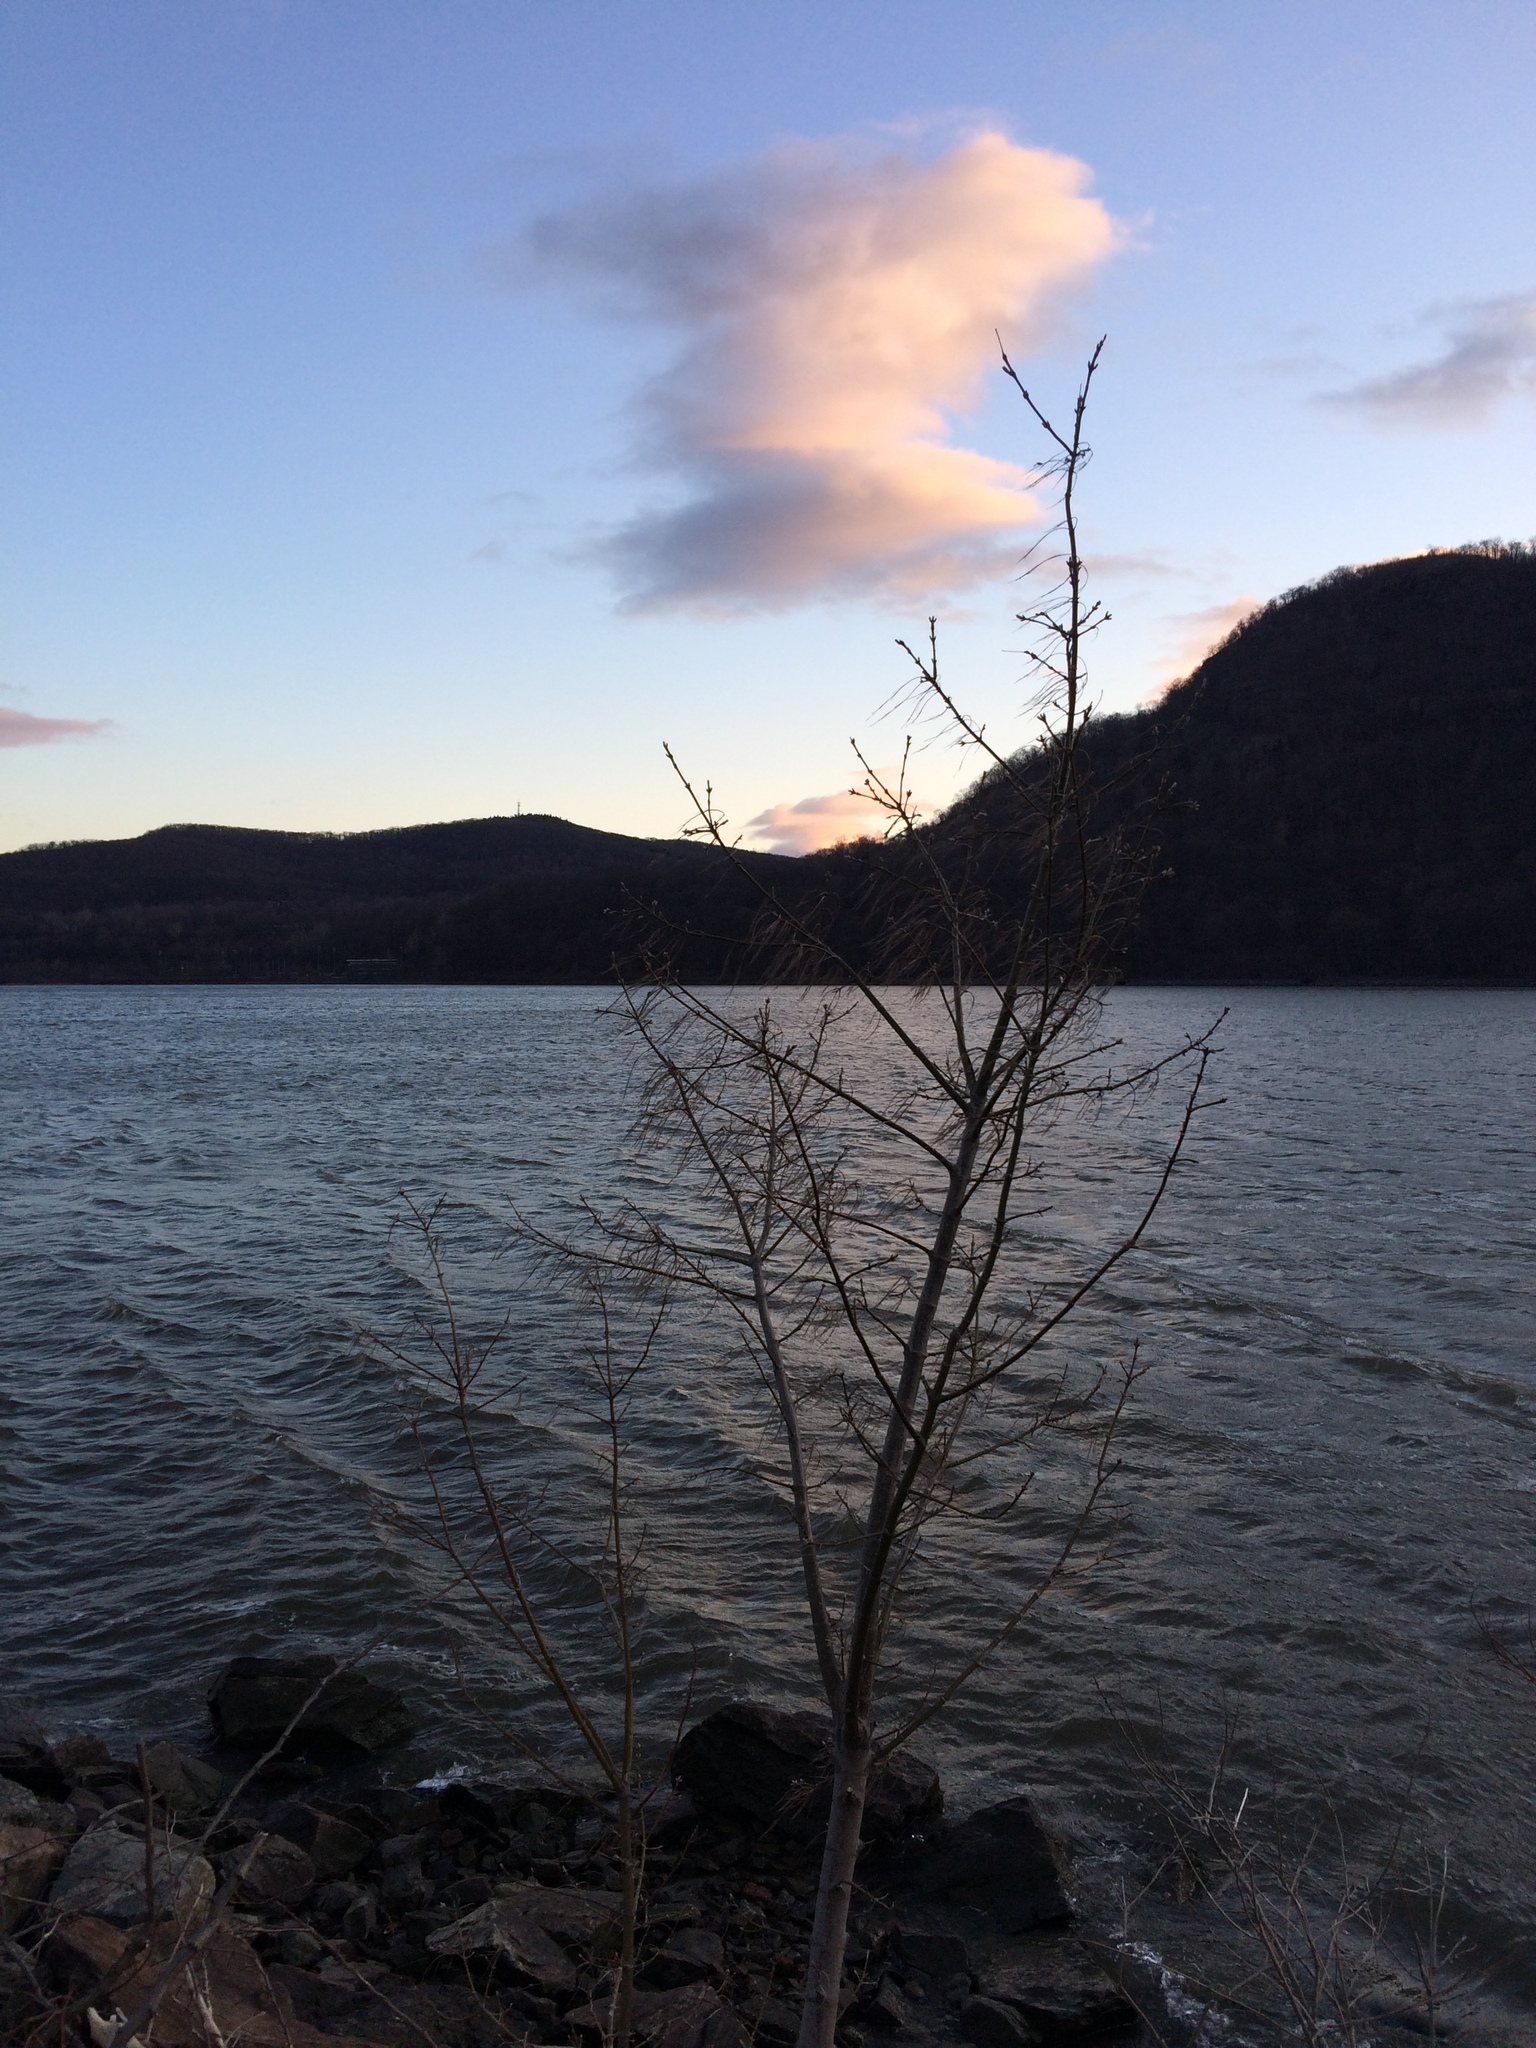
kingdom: Plantae
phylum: Tracheophyta
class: Magnoliopsida
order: Sapindales
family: Sapindaceae
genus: Acer
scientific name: Acer negundo
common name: Ashleaf maple
